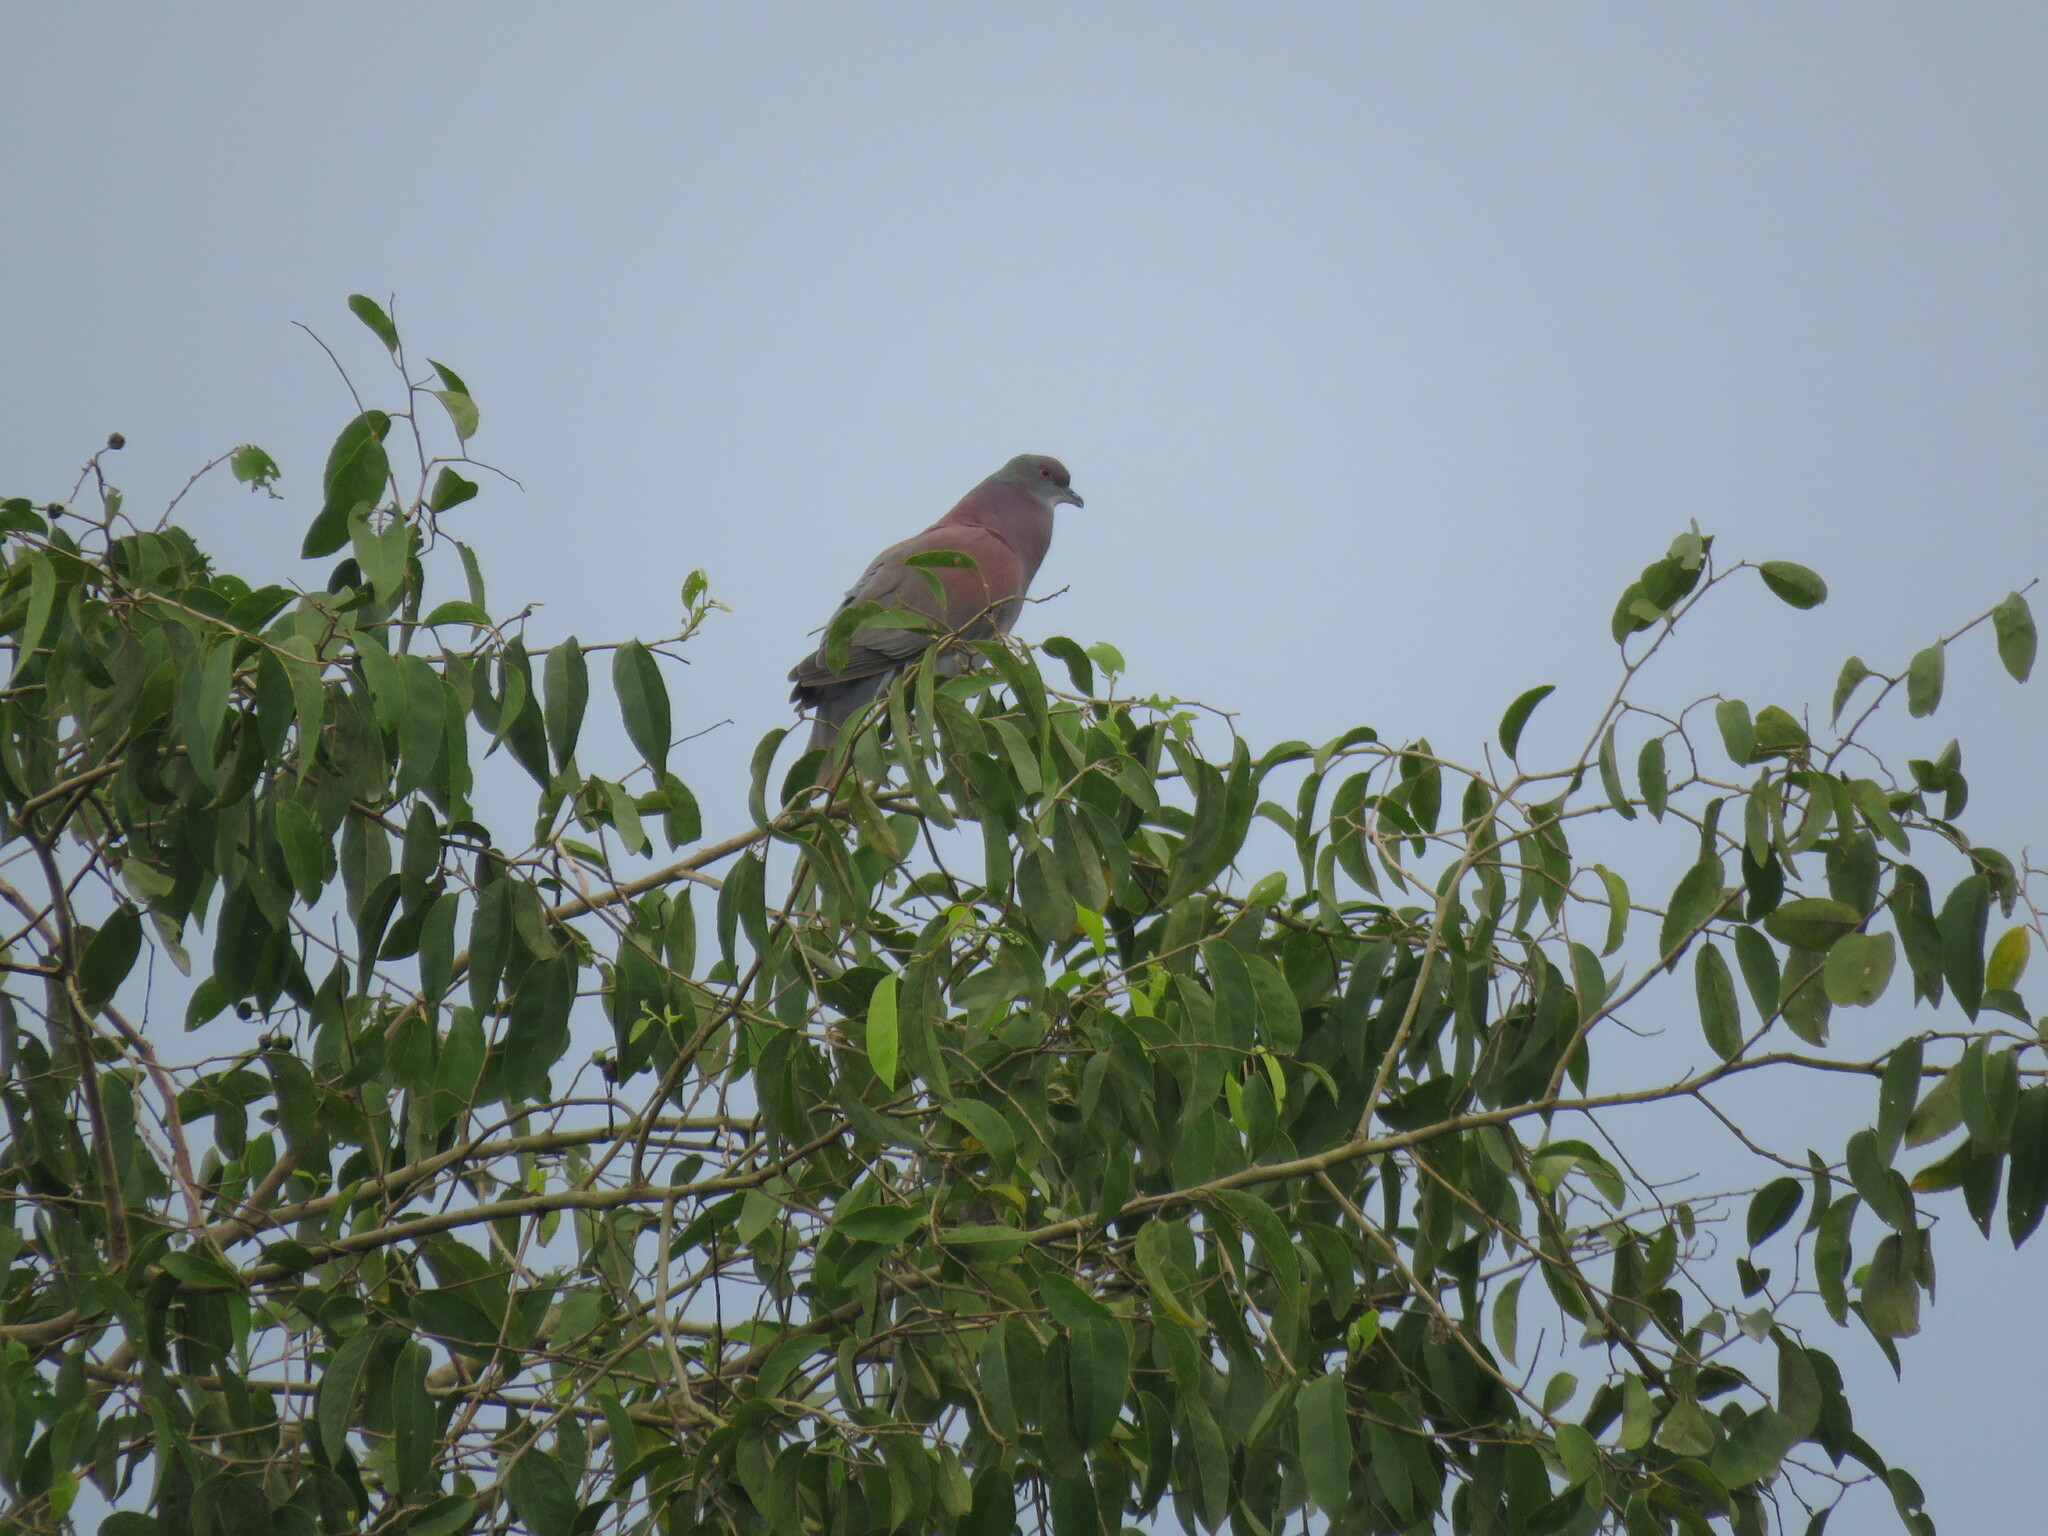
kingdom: Animalia
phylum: Chordata
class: Aves
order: Columbiformes
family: Columbidae
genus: Patagioenas
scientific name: Patagioenas cayennensis
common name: Pale-vented pigeon
